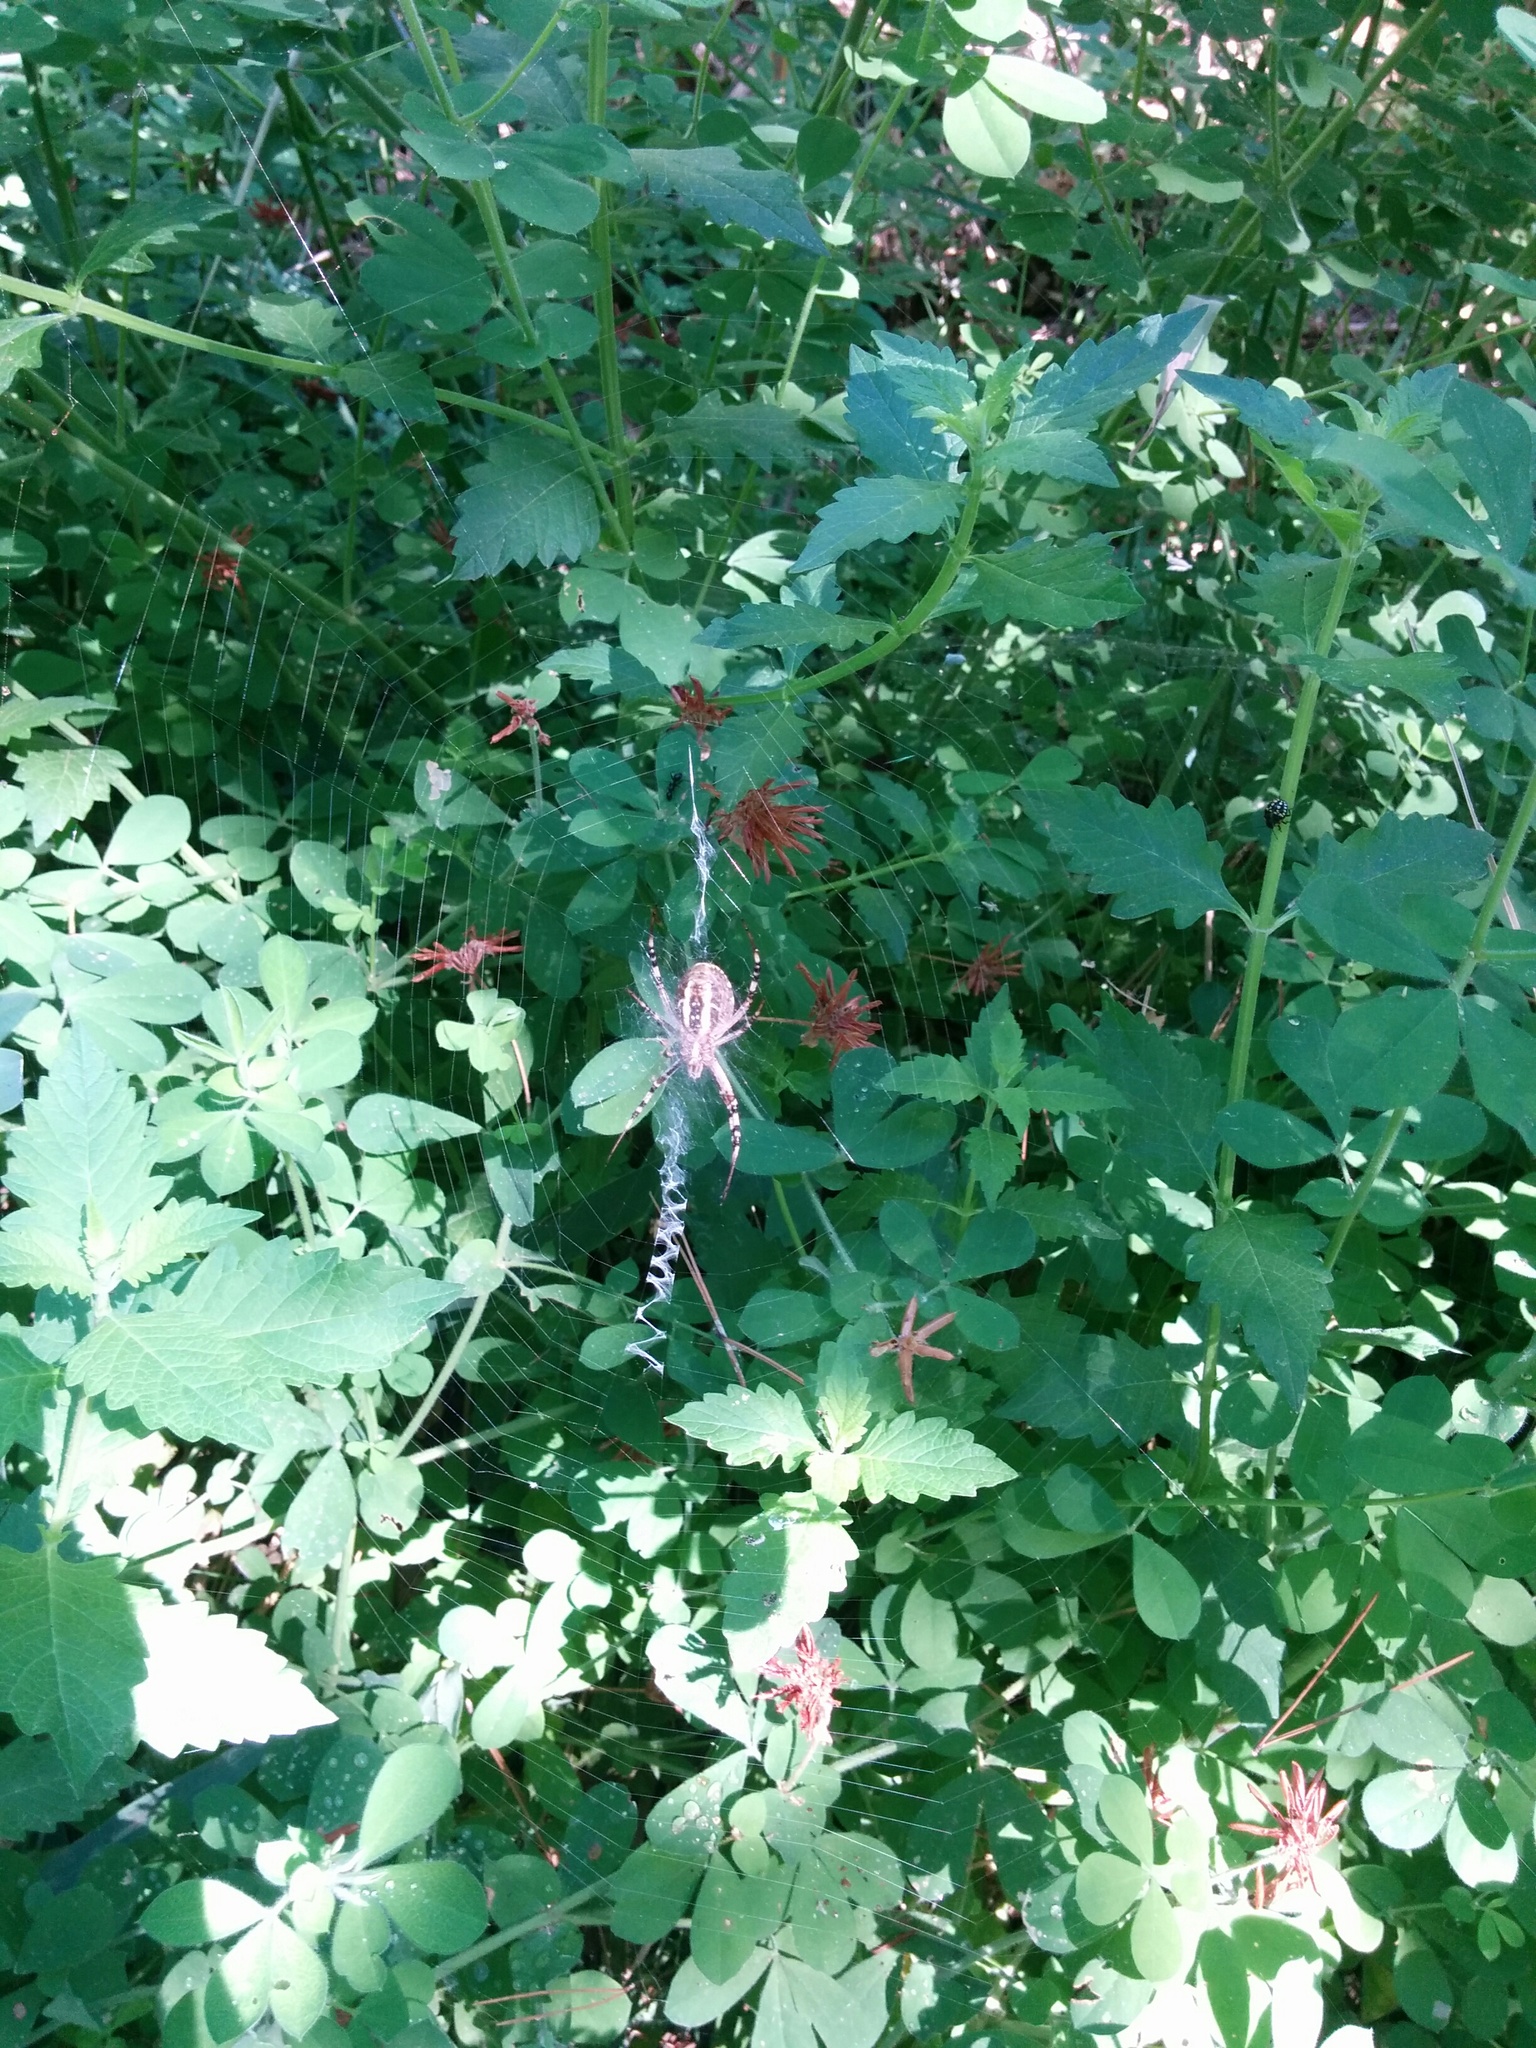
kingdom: Animalia
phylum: Arthropoda
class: Arachnida
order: Araneae
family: Araneidae
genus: Argiope
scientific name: Argiope bruennichi
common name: Wasp spider
